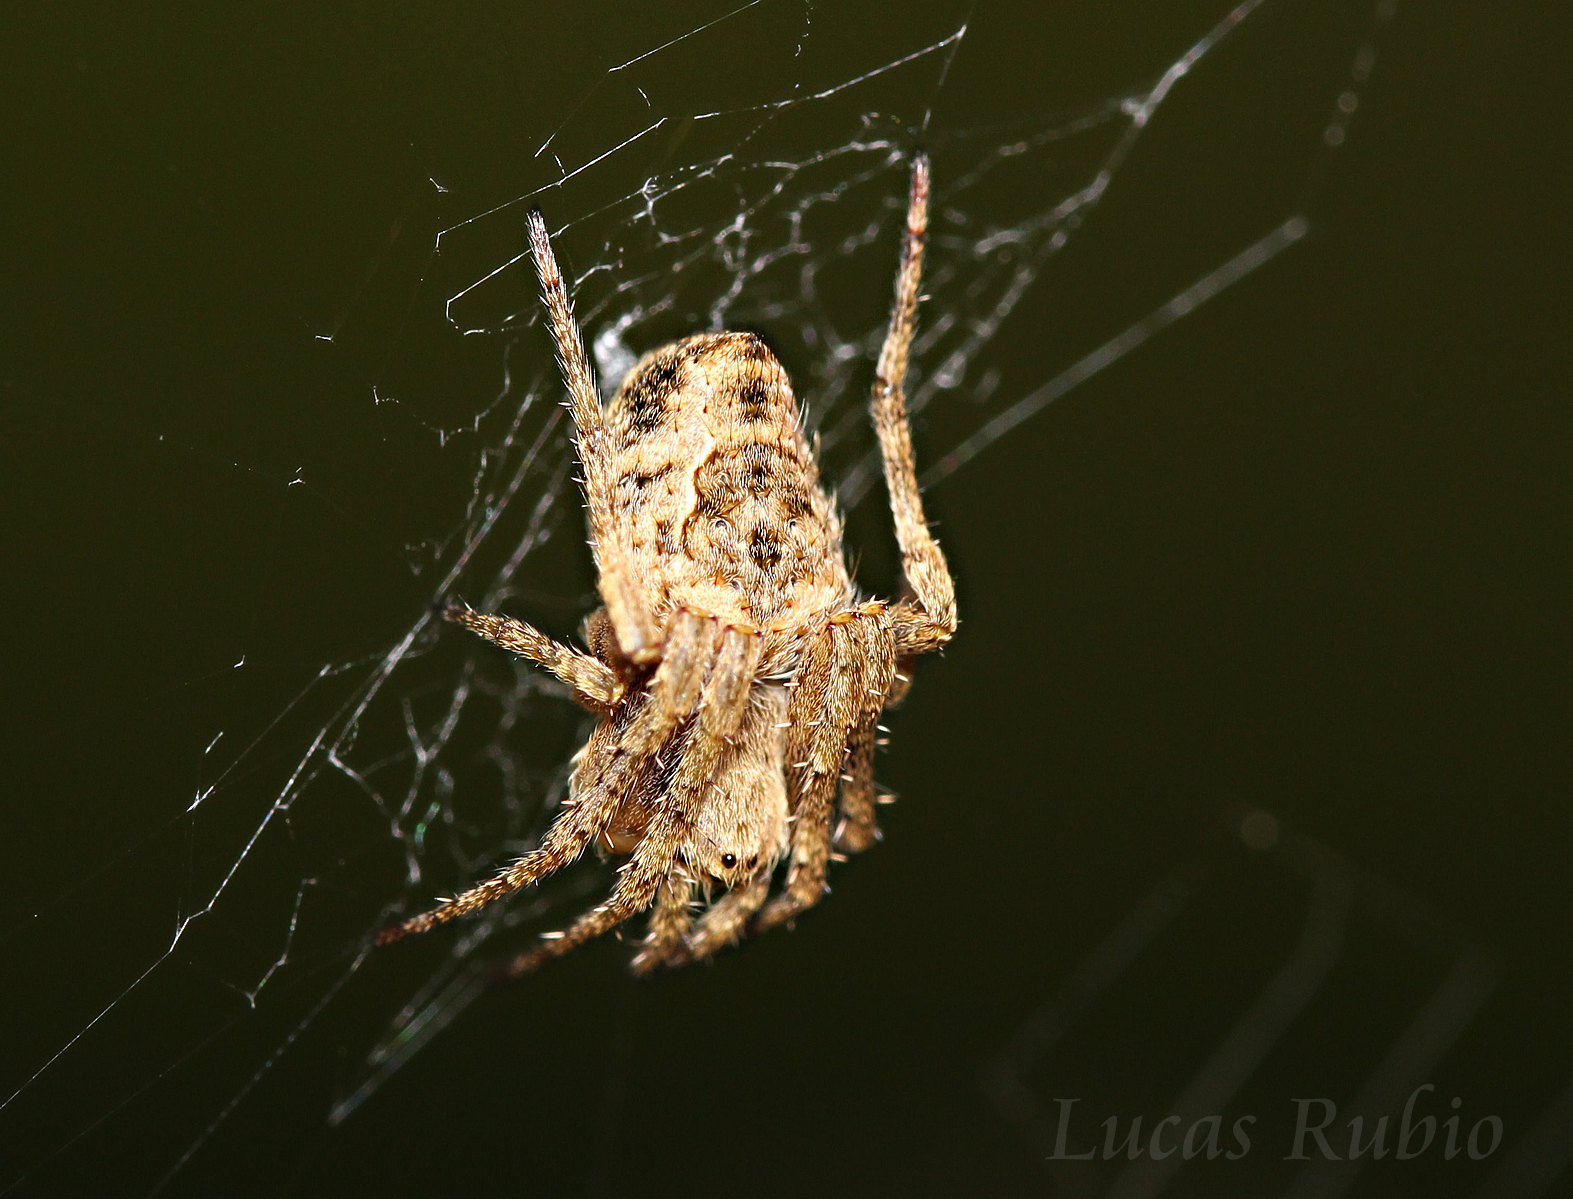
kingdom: Animalia
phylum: Arthropoda
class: Arachnida
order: Araneae
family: Araneidae
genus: Eustala
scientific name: Eustala
